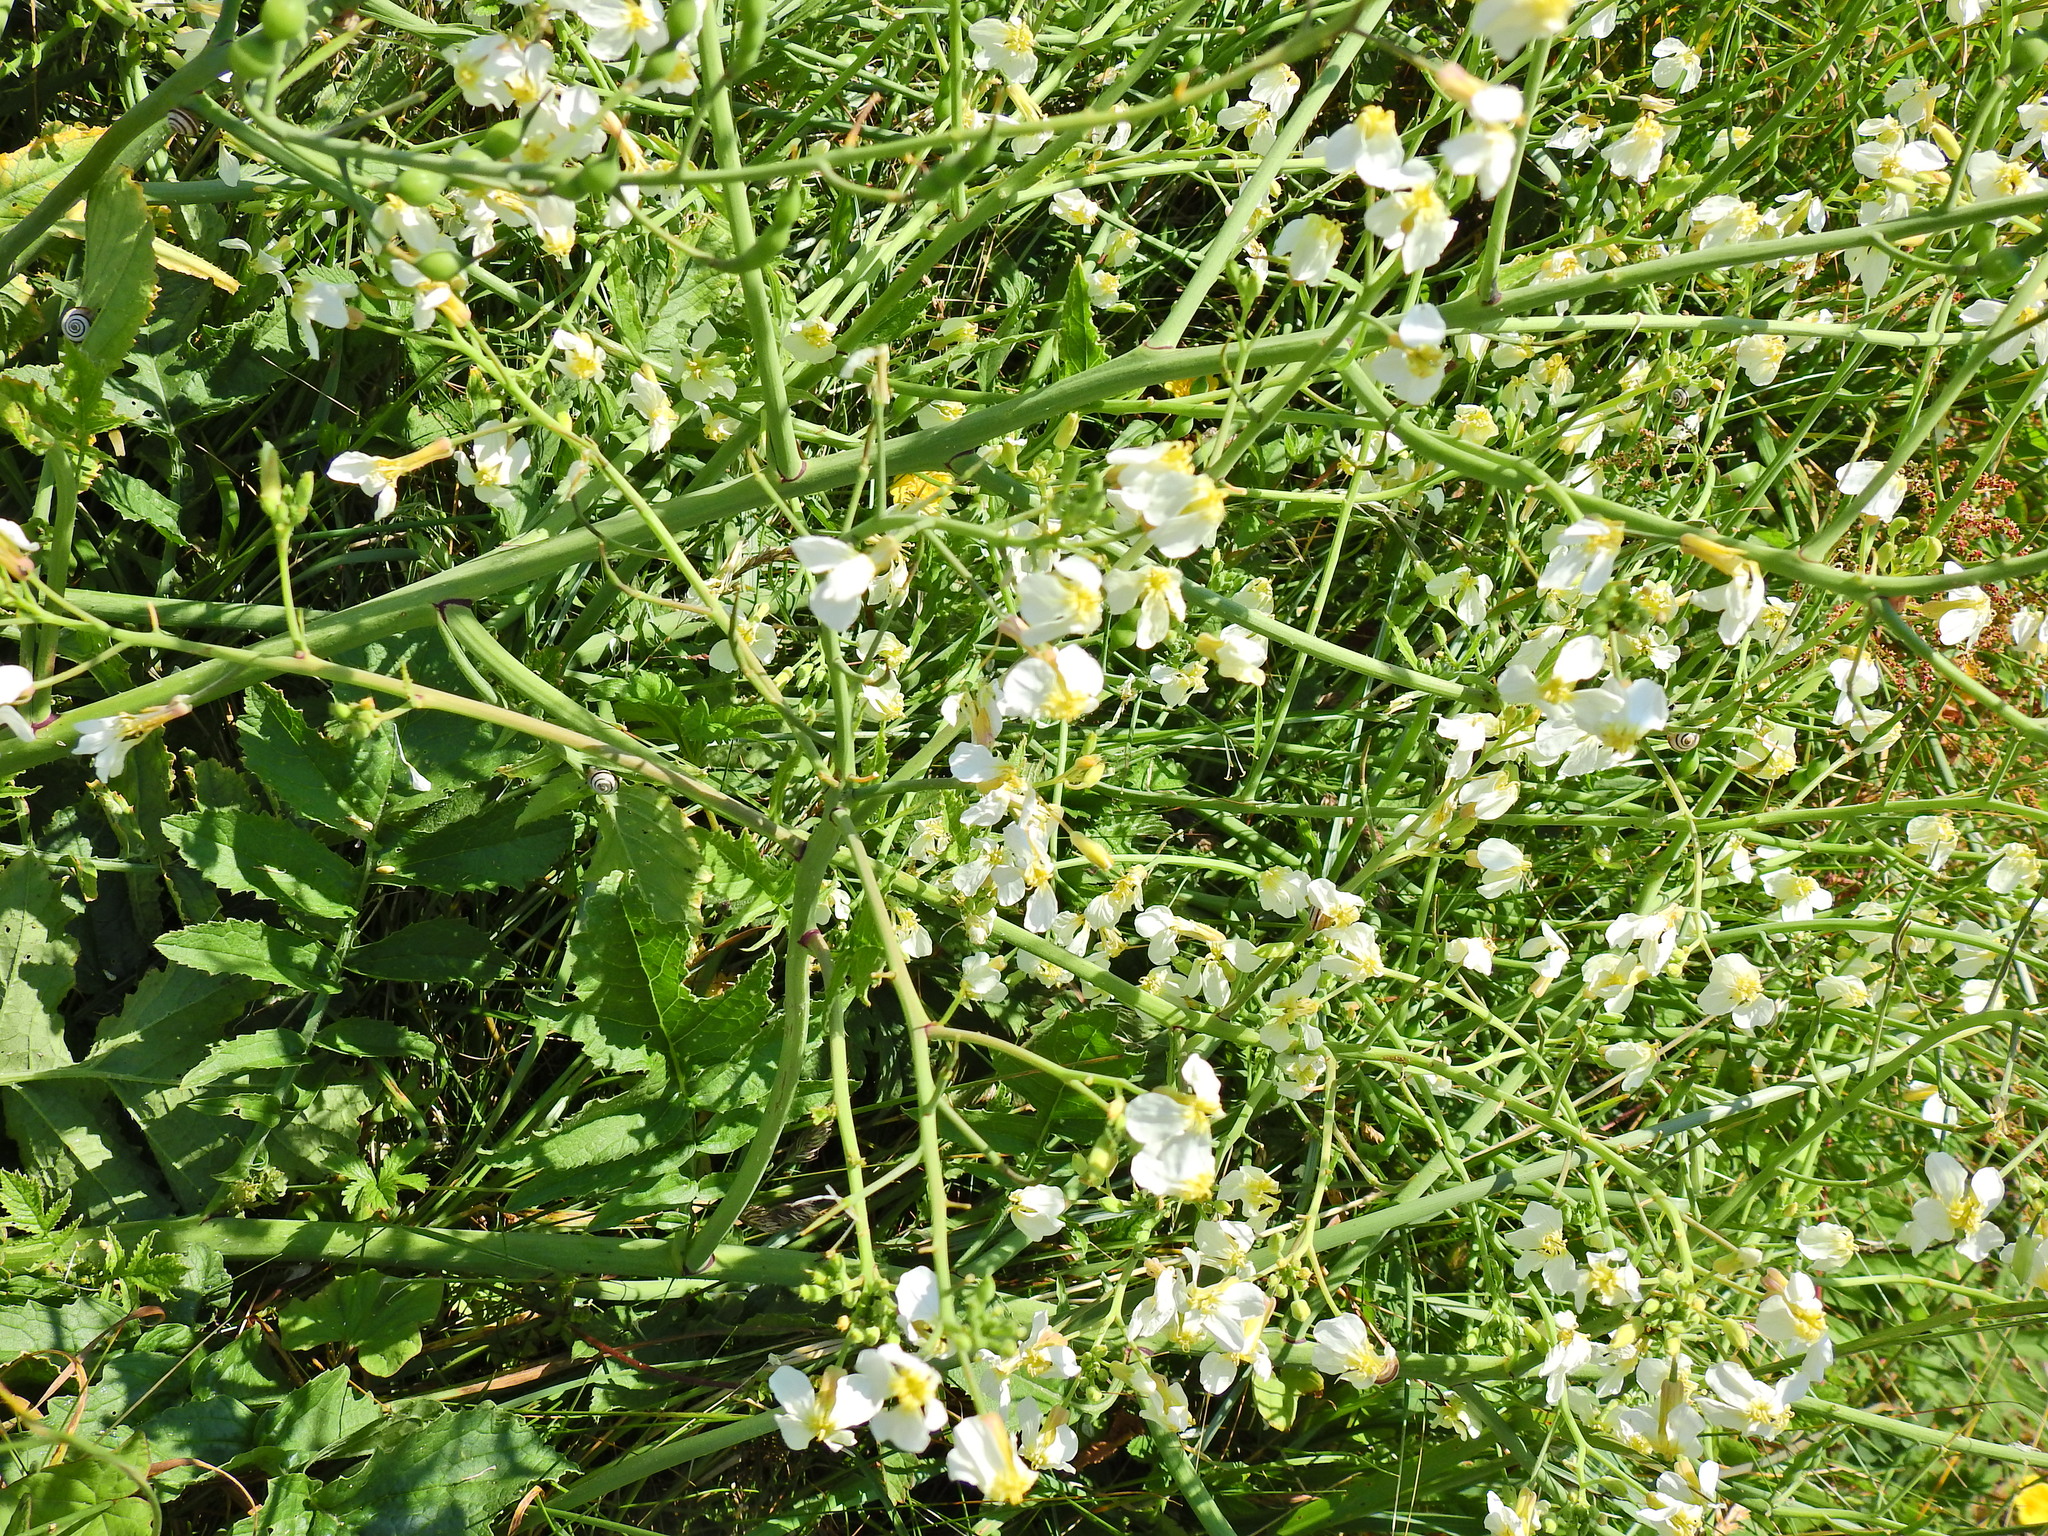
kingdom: Plantae
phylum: Tracheophyta
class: Magnoliopsida
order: Brassicales
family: Brassicaceae
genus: Raphanus
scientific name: Raphanus raphanistrum
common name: Wild radish
